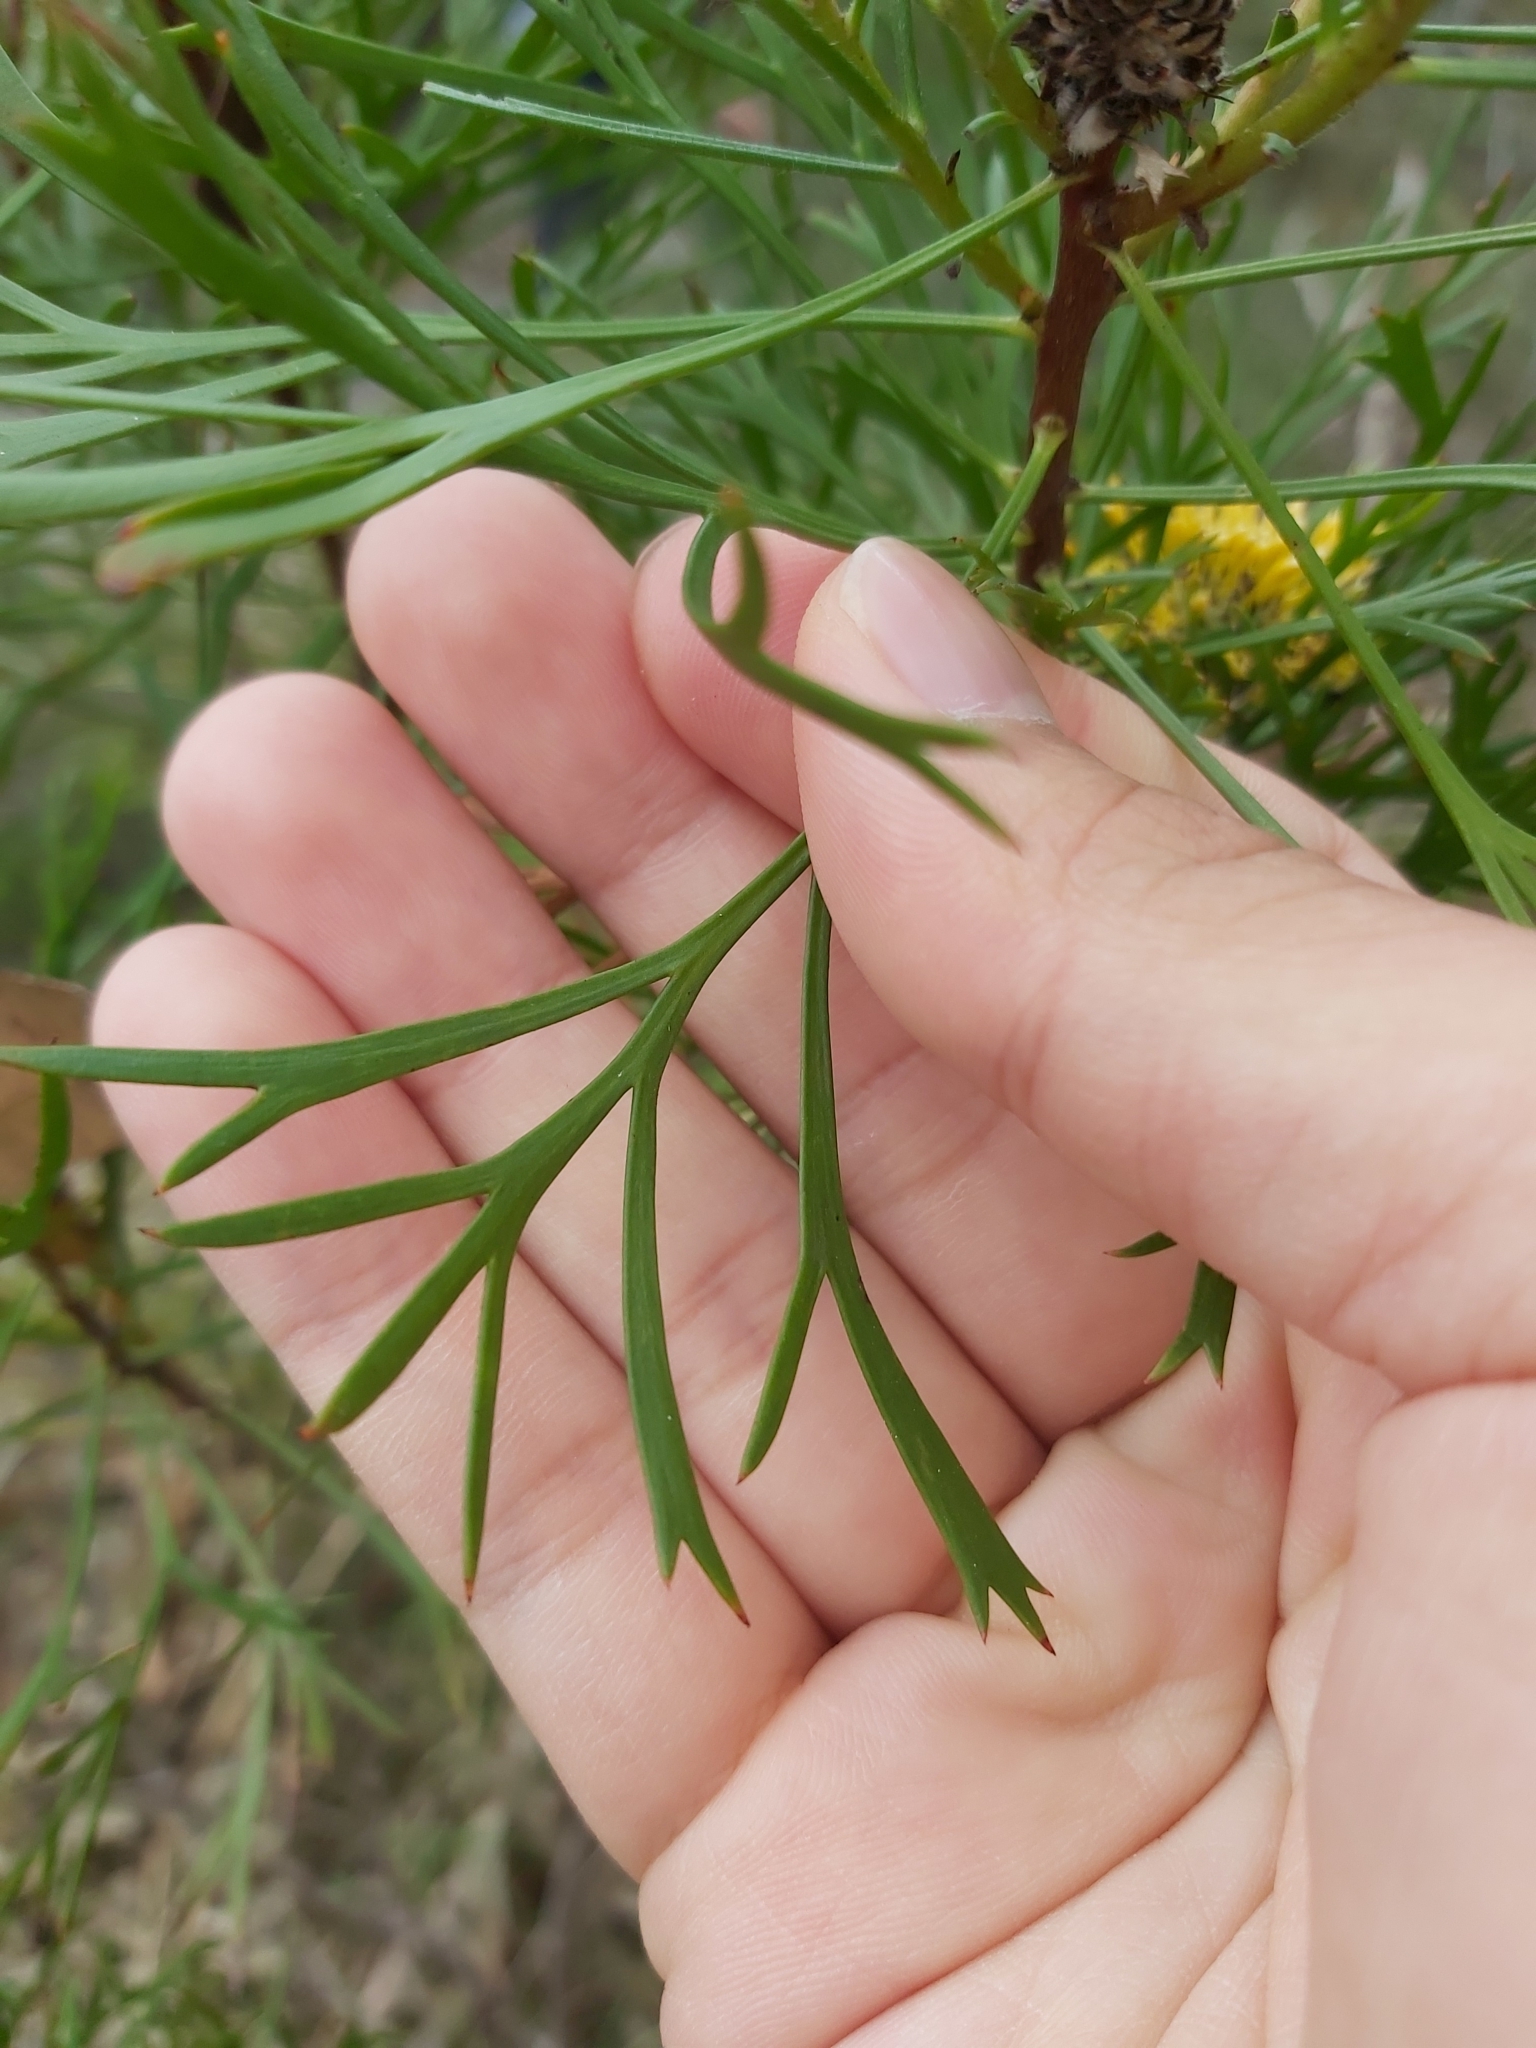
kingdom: Plantae
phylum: Tracheophyta
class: Magnoliopsida
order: Proteales
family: Proteaceae
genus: Isopogon
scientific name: Isopogon anemonifolius
